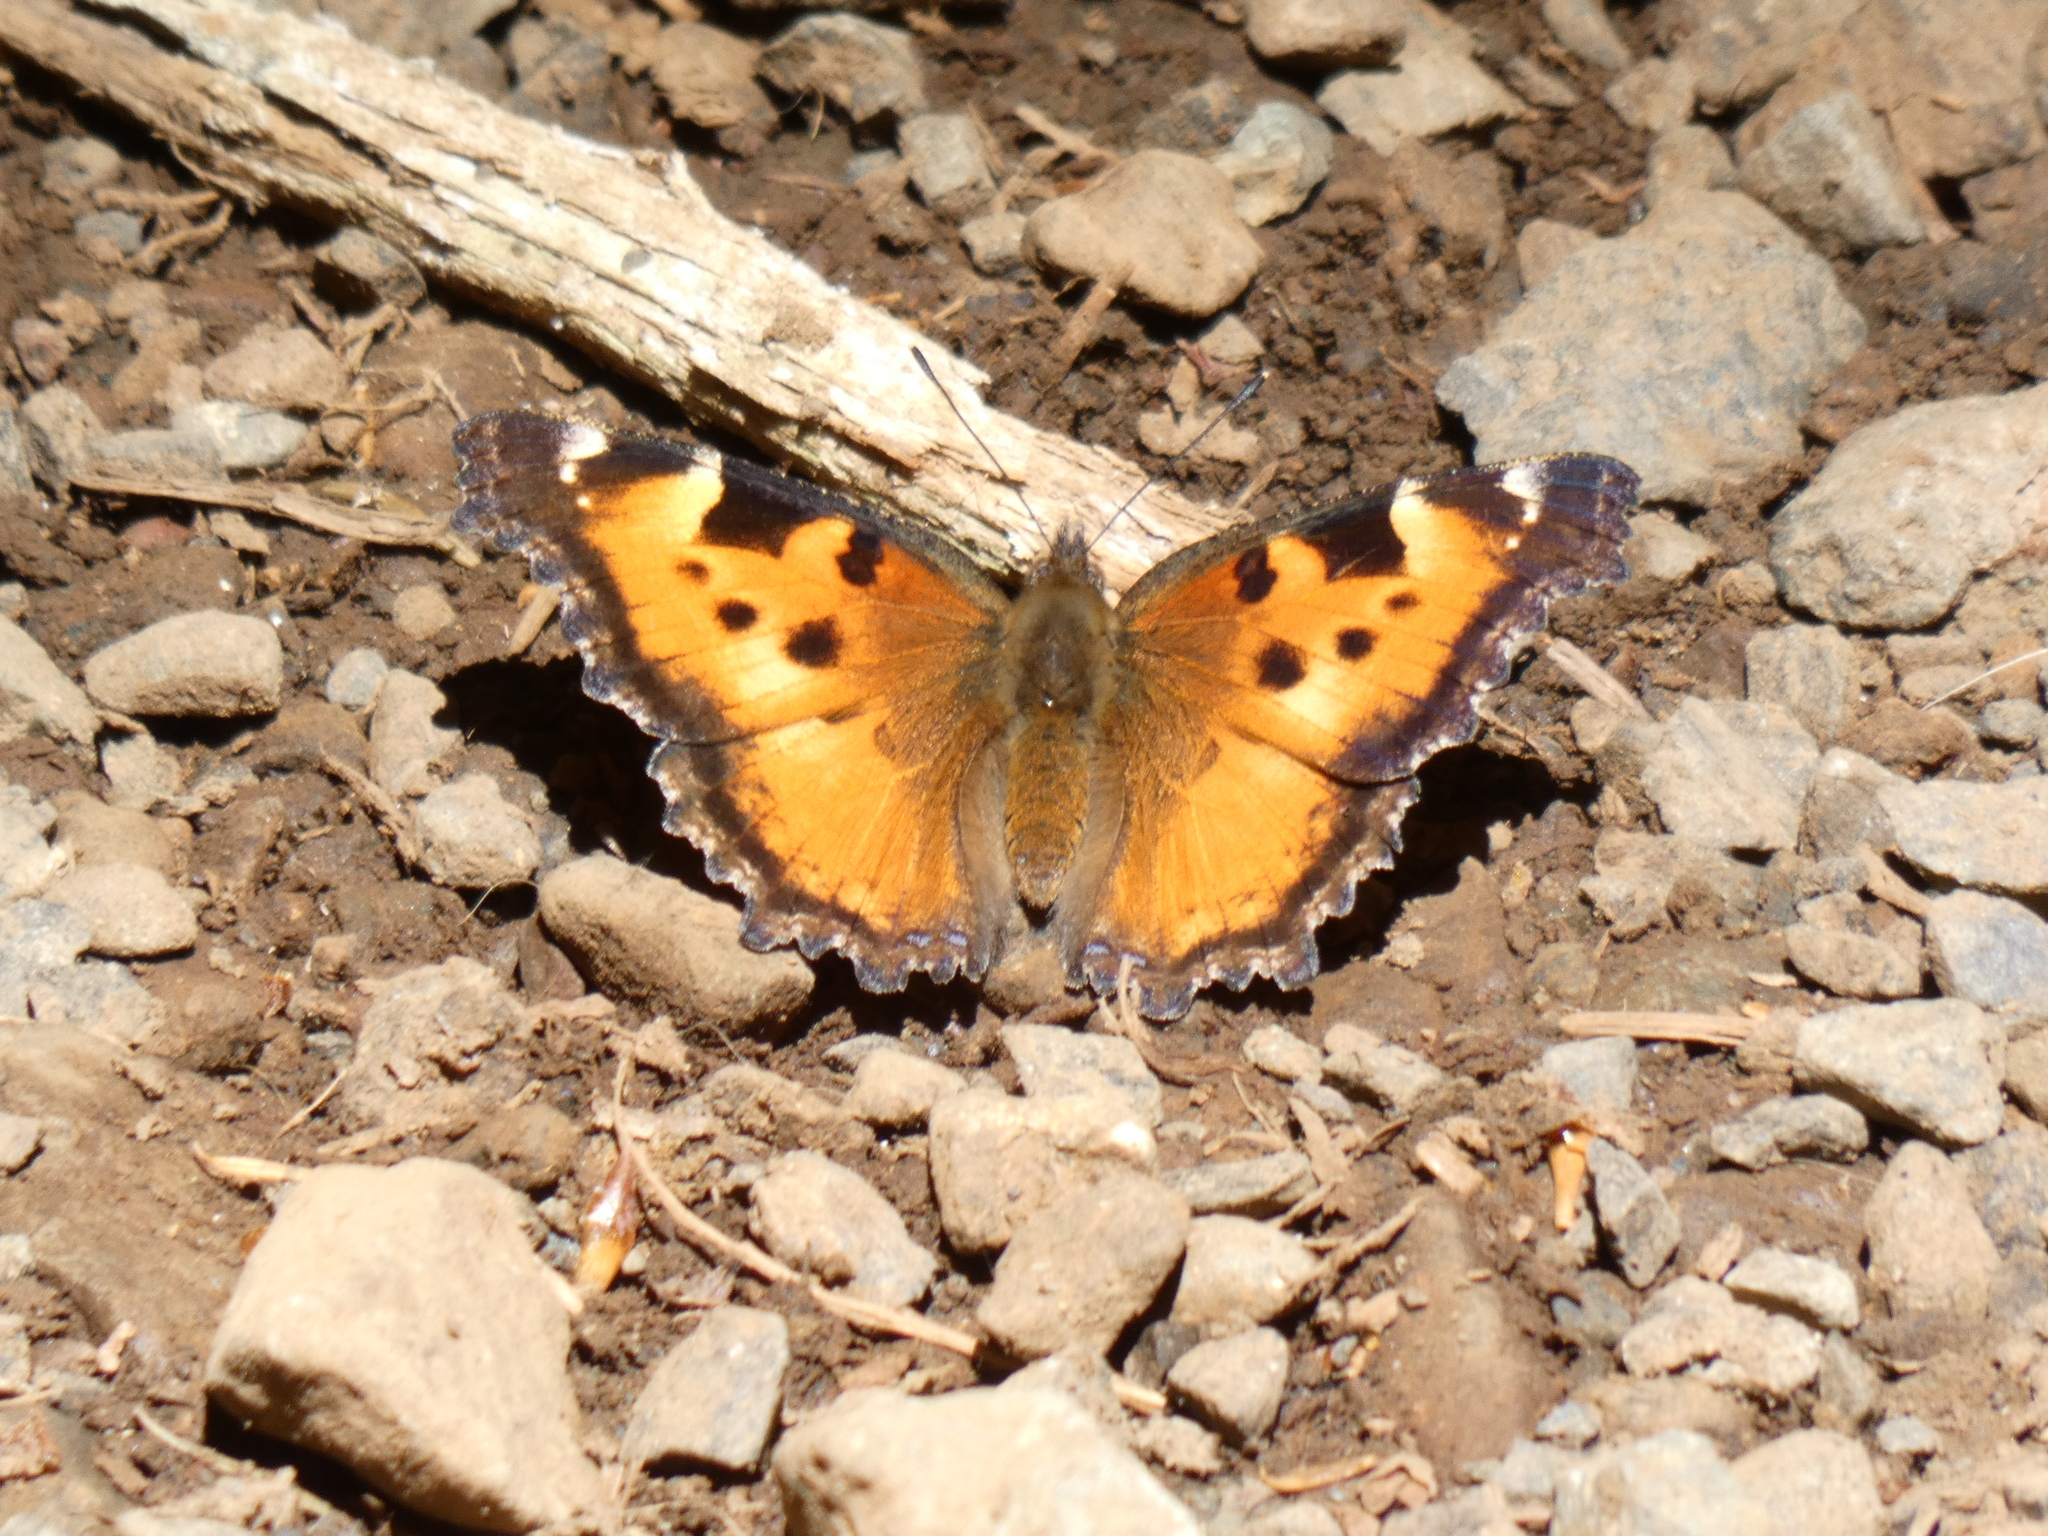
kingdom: Animalia
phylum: Arthropoda
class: Insecta
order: Lepidoptera
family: Nymphalidae
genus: Nymphalis
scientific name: Nymphalis californica
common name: California tortoiseshell
